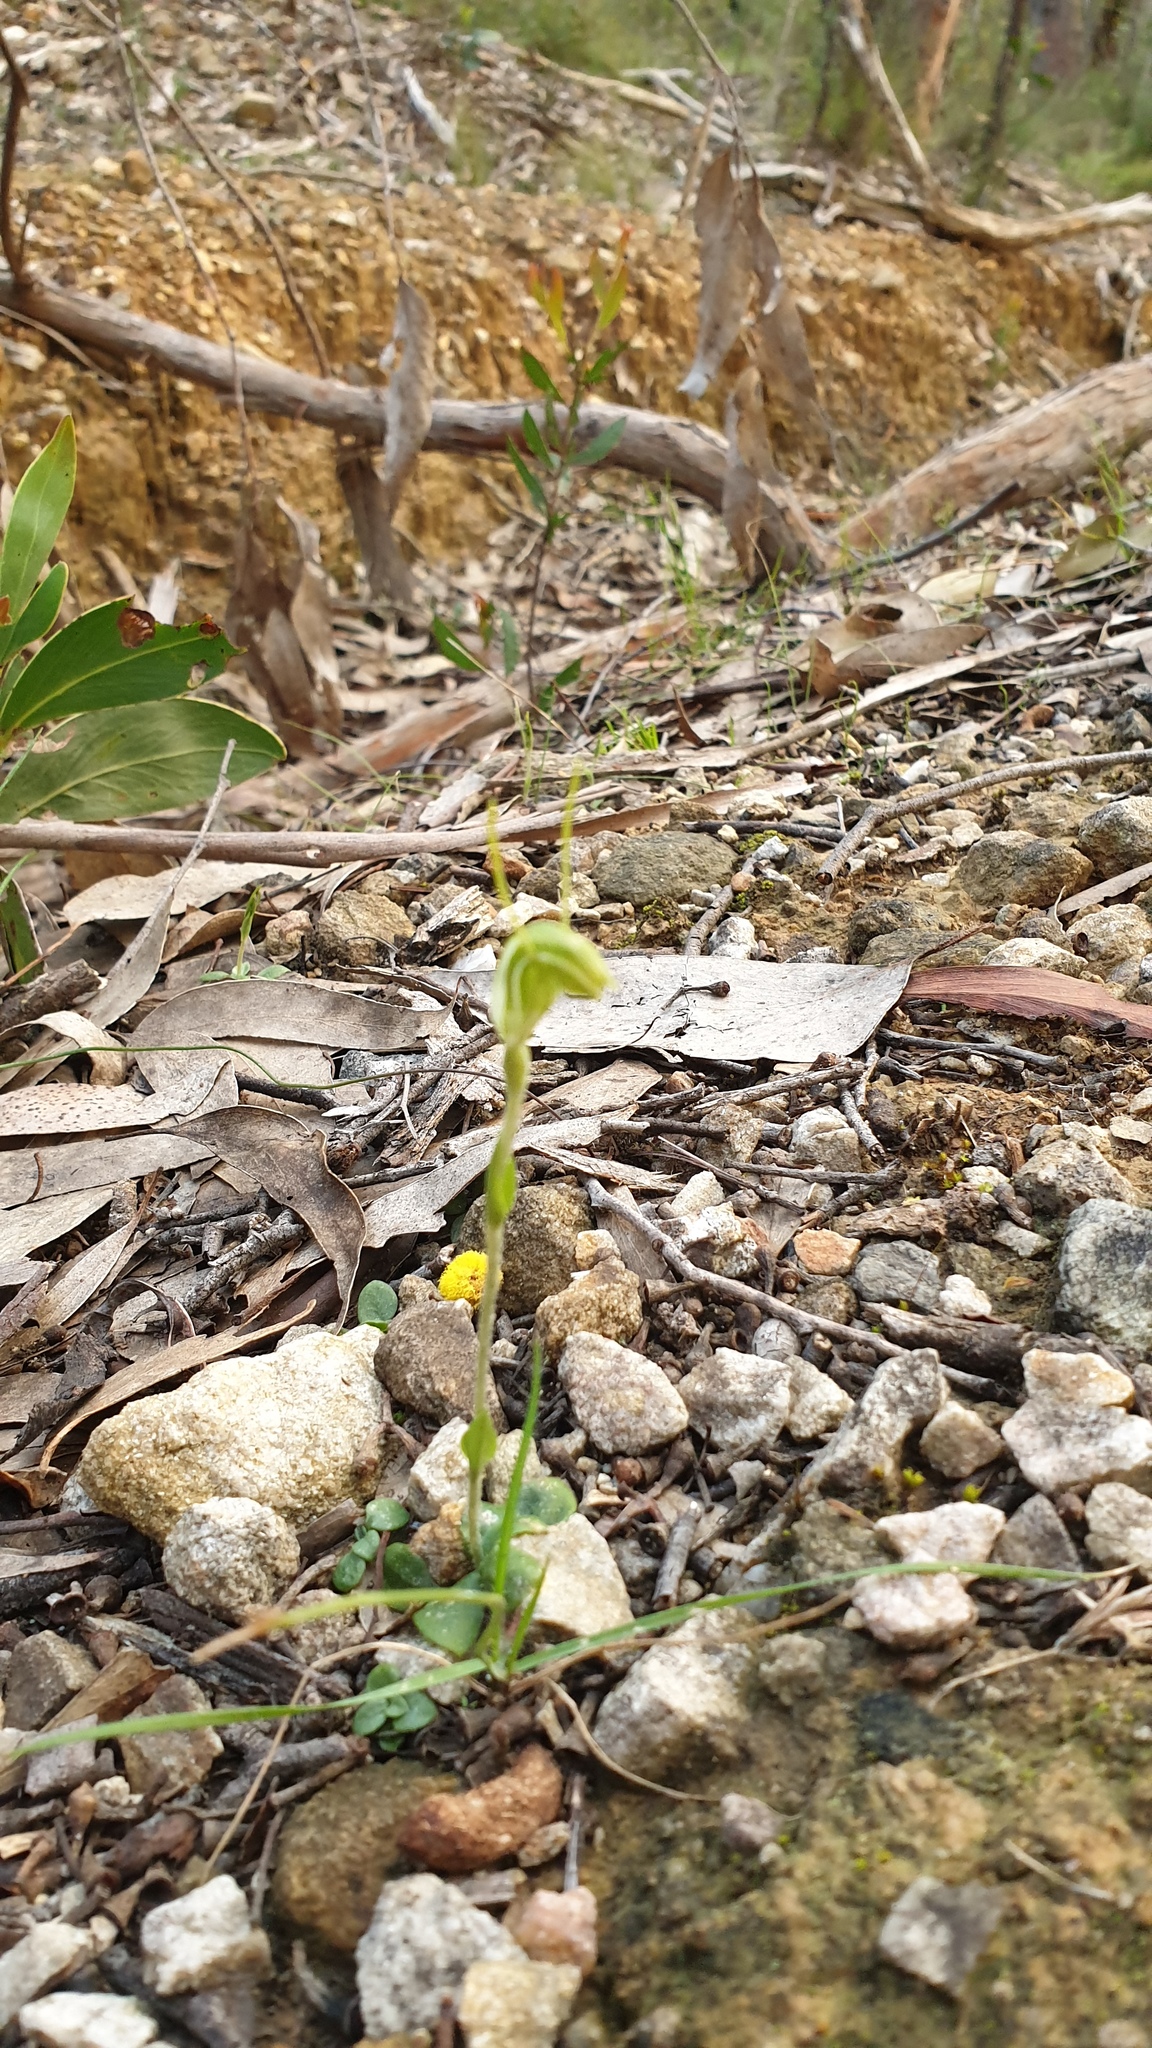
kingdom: Plantae
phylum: Tracheophyta
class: Liliopsida
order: Asparagales
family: Orchidaceae
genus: Pterostylis
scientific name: Pterostylis nana
